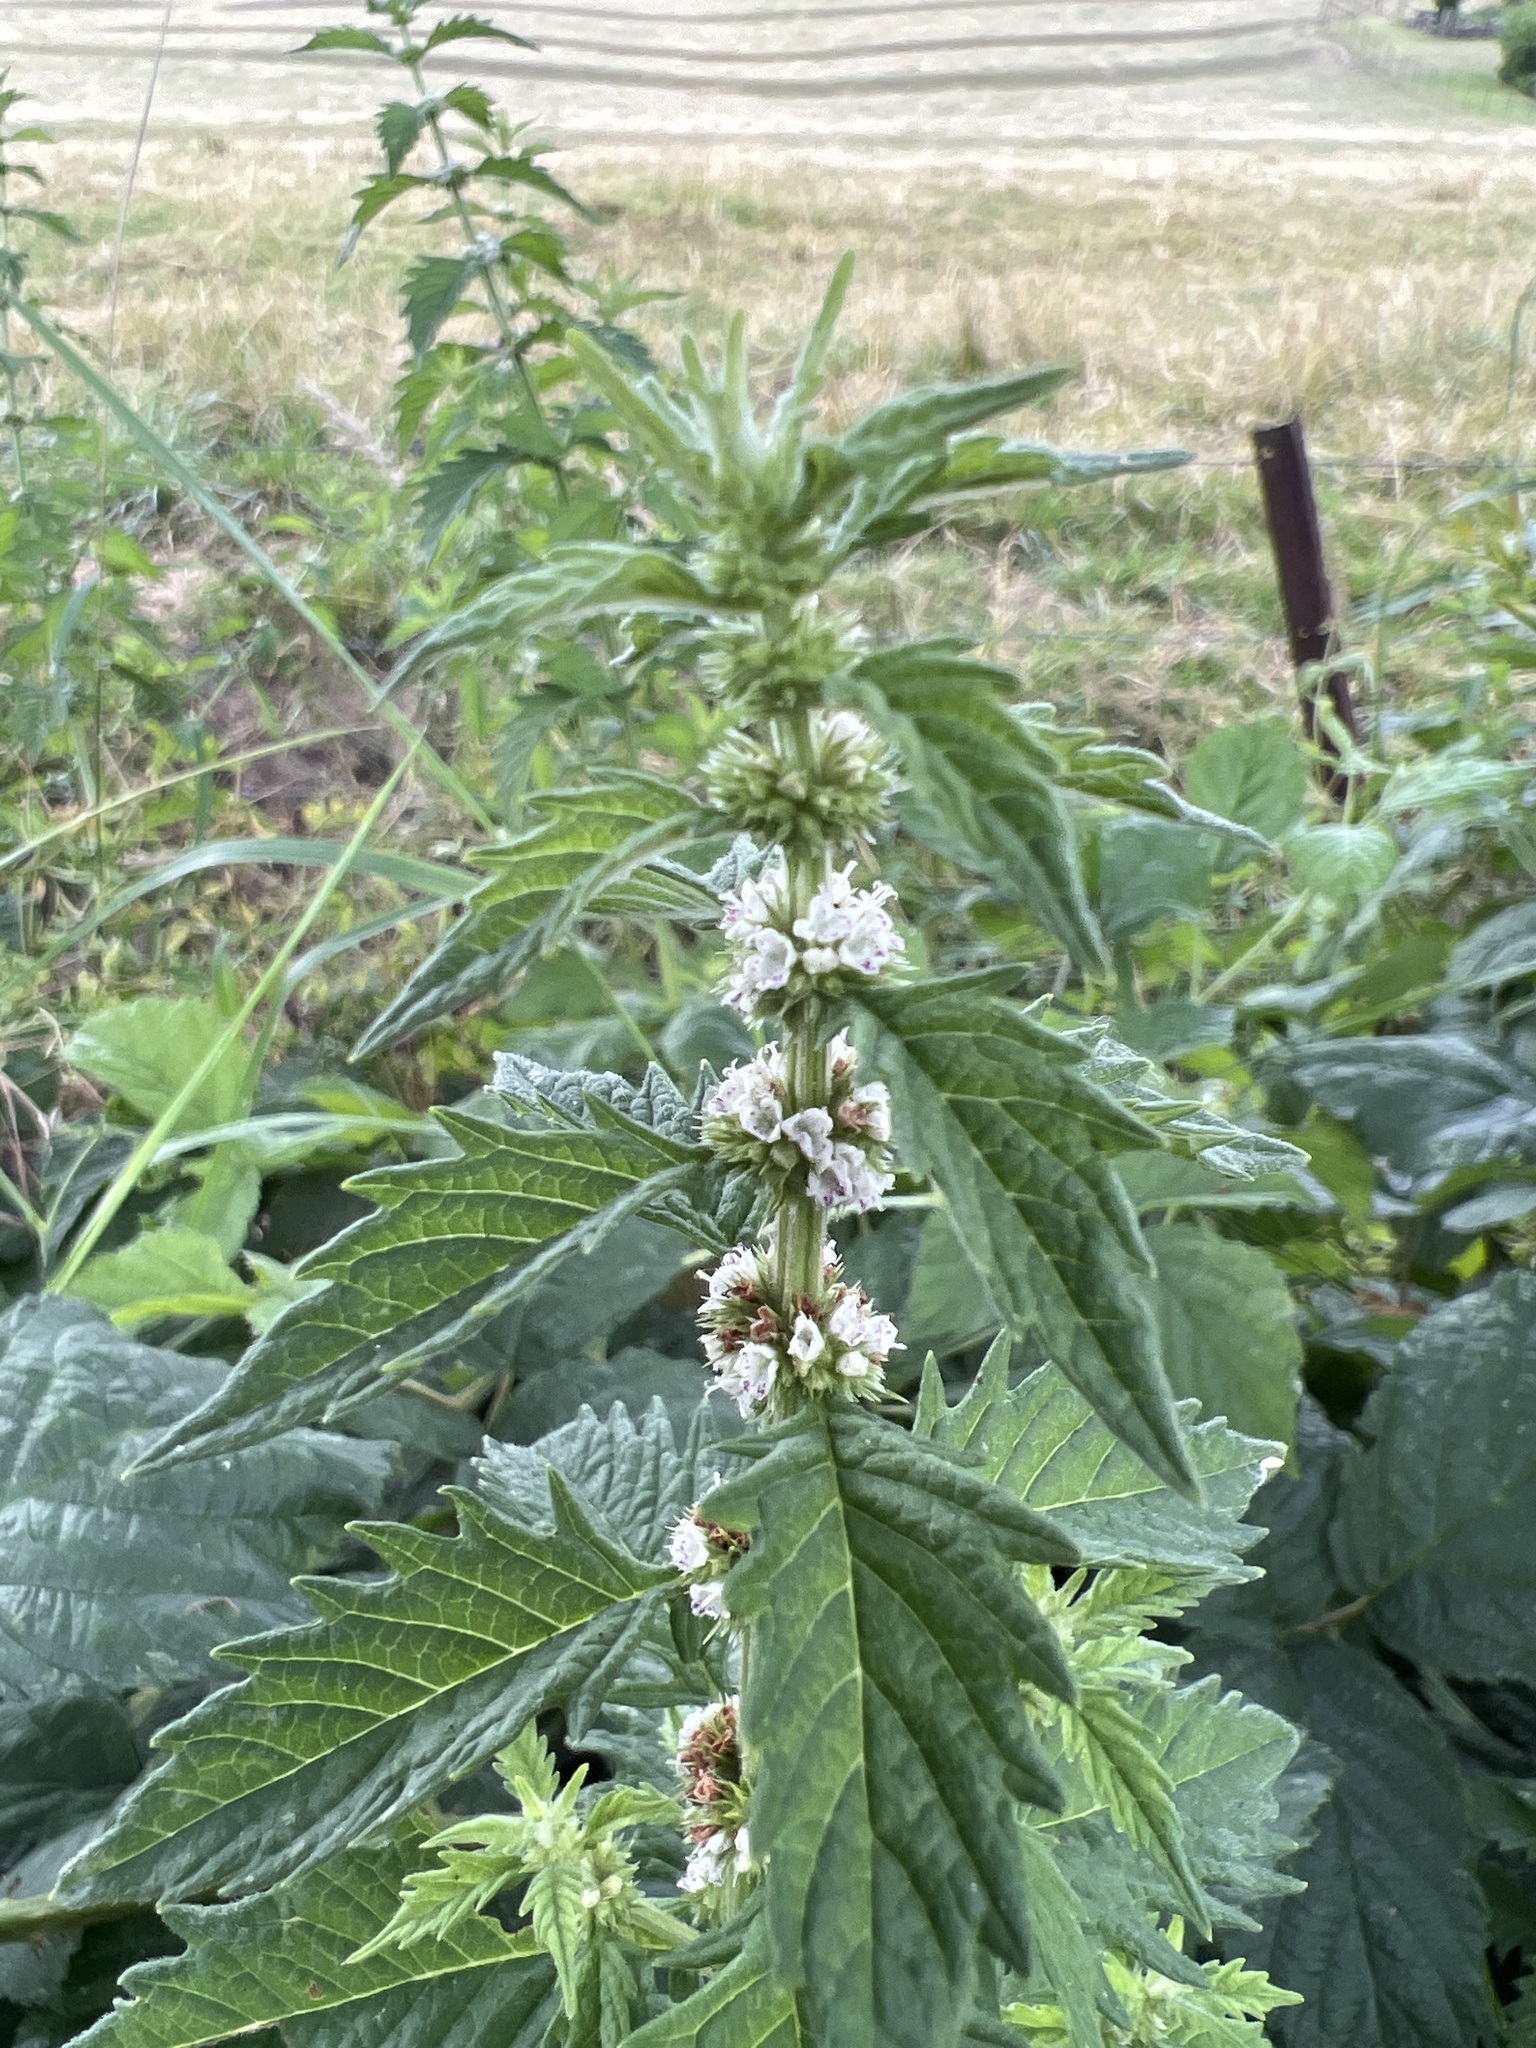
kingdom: Plantae
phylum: Tracheophyta
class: Magnoliopsida
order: Lamiales
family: Lamiaceae
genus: Lycopus
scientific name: Lycopus europaeus
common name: European bugleweed
